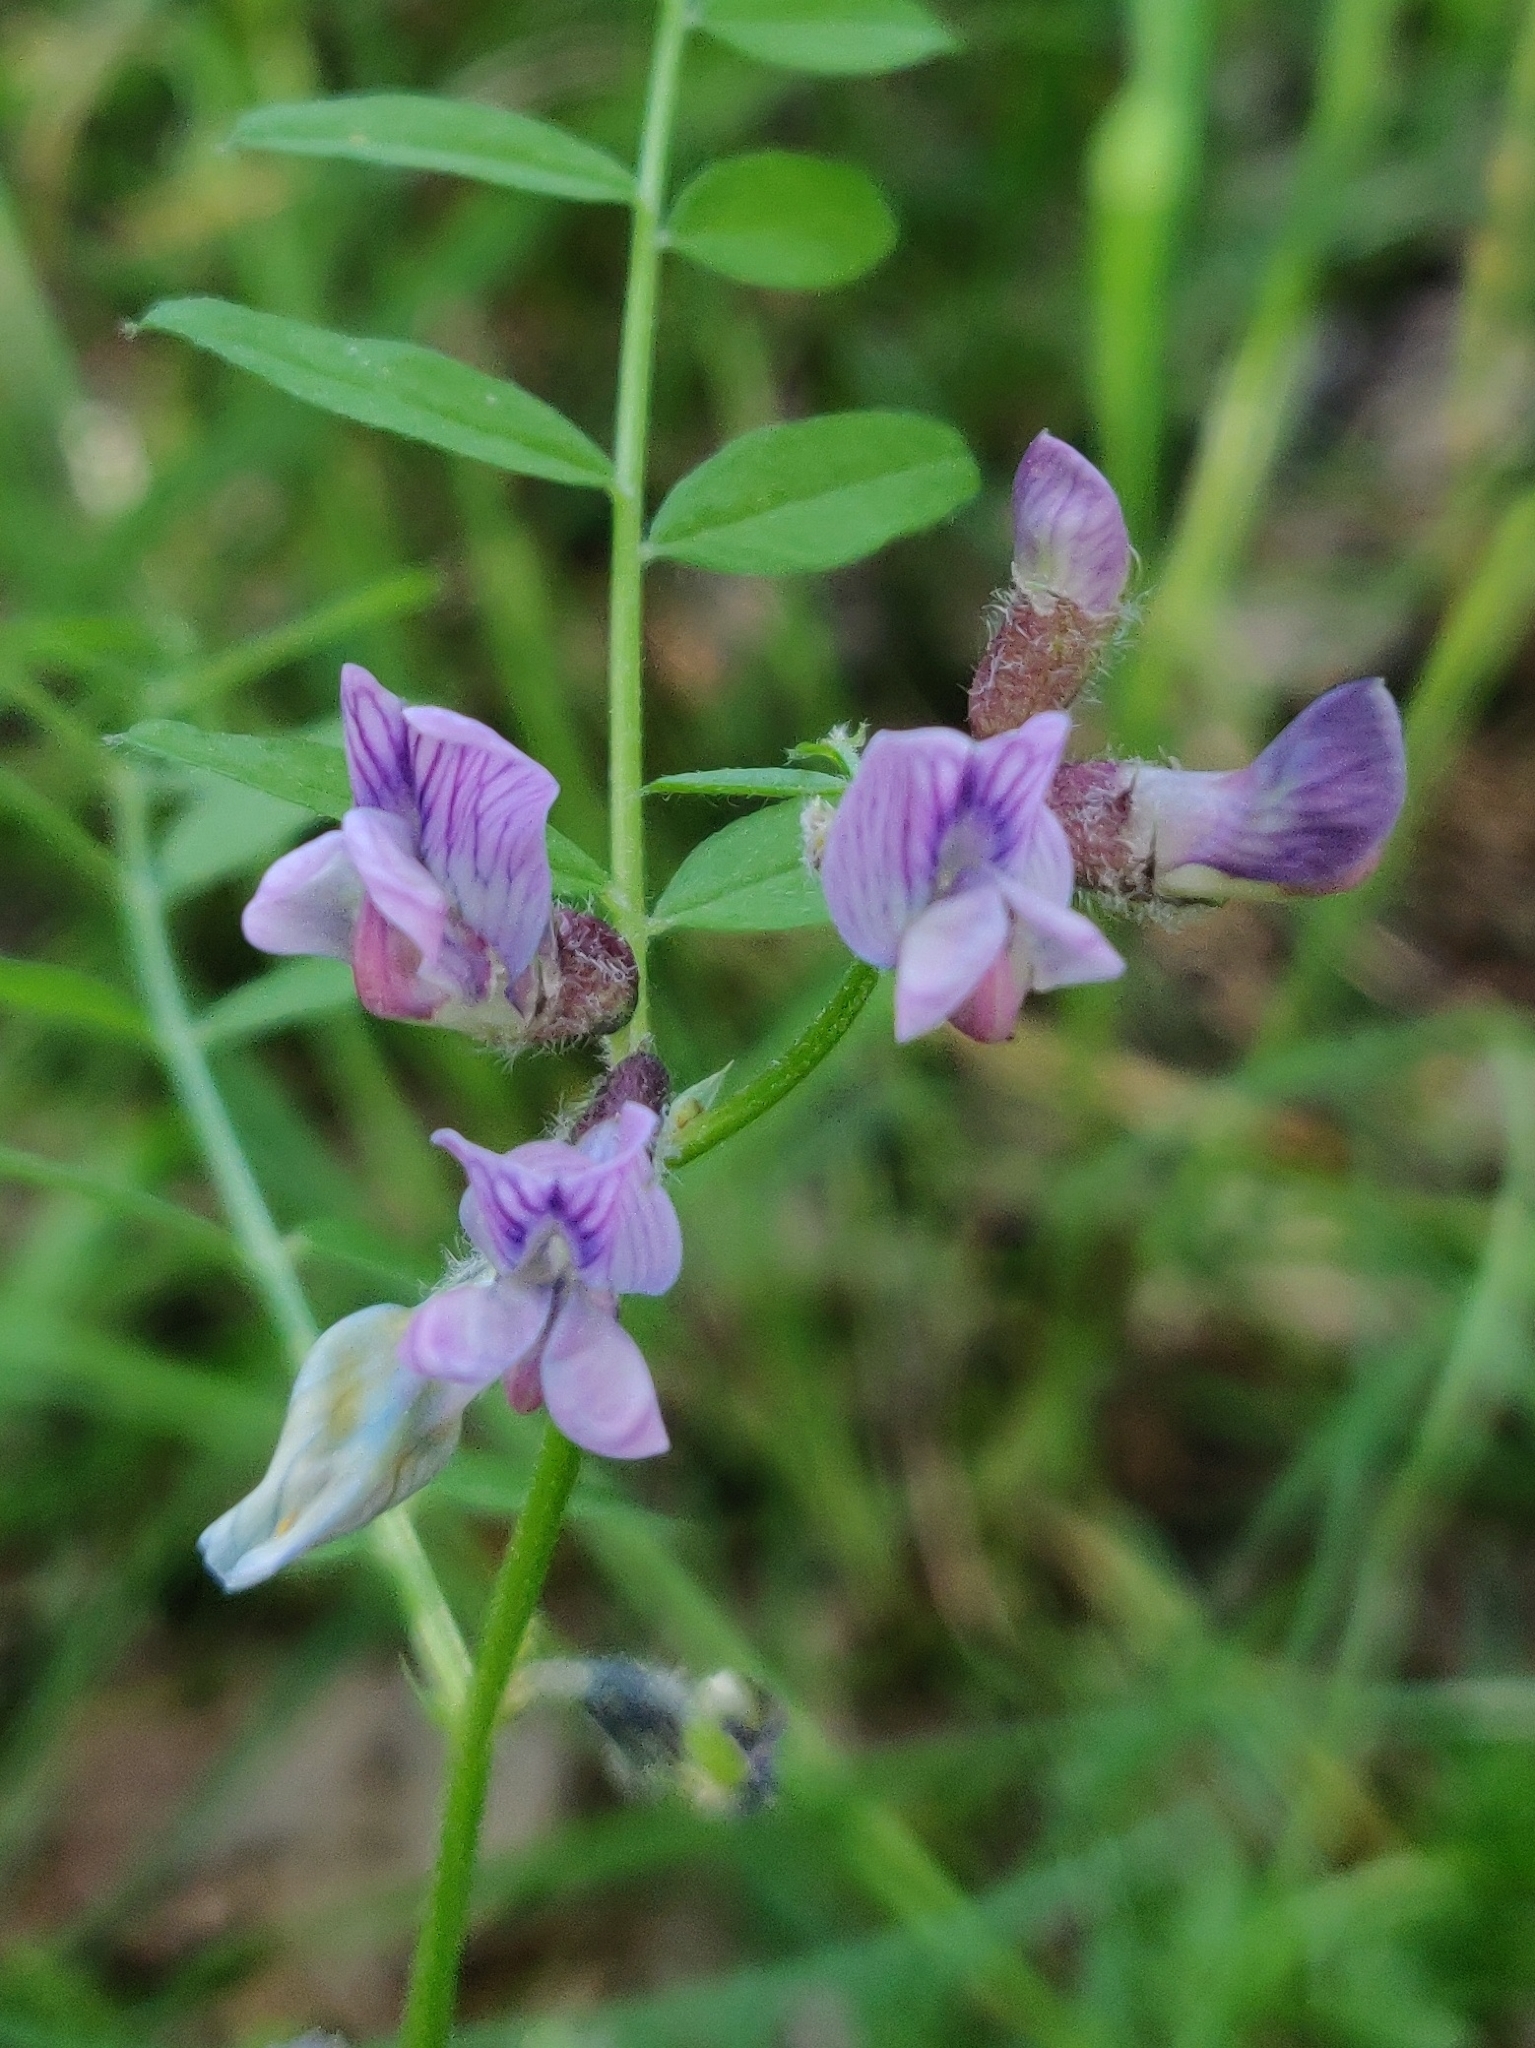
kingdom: Plantae
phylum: Tracheophyta
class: Magnoliopsida
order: Fabales
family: Fabaceae
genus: Vicia
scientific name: Vicia sepium
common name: Bush vetch
